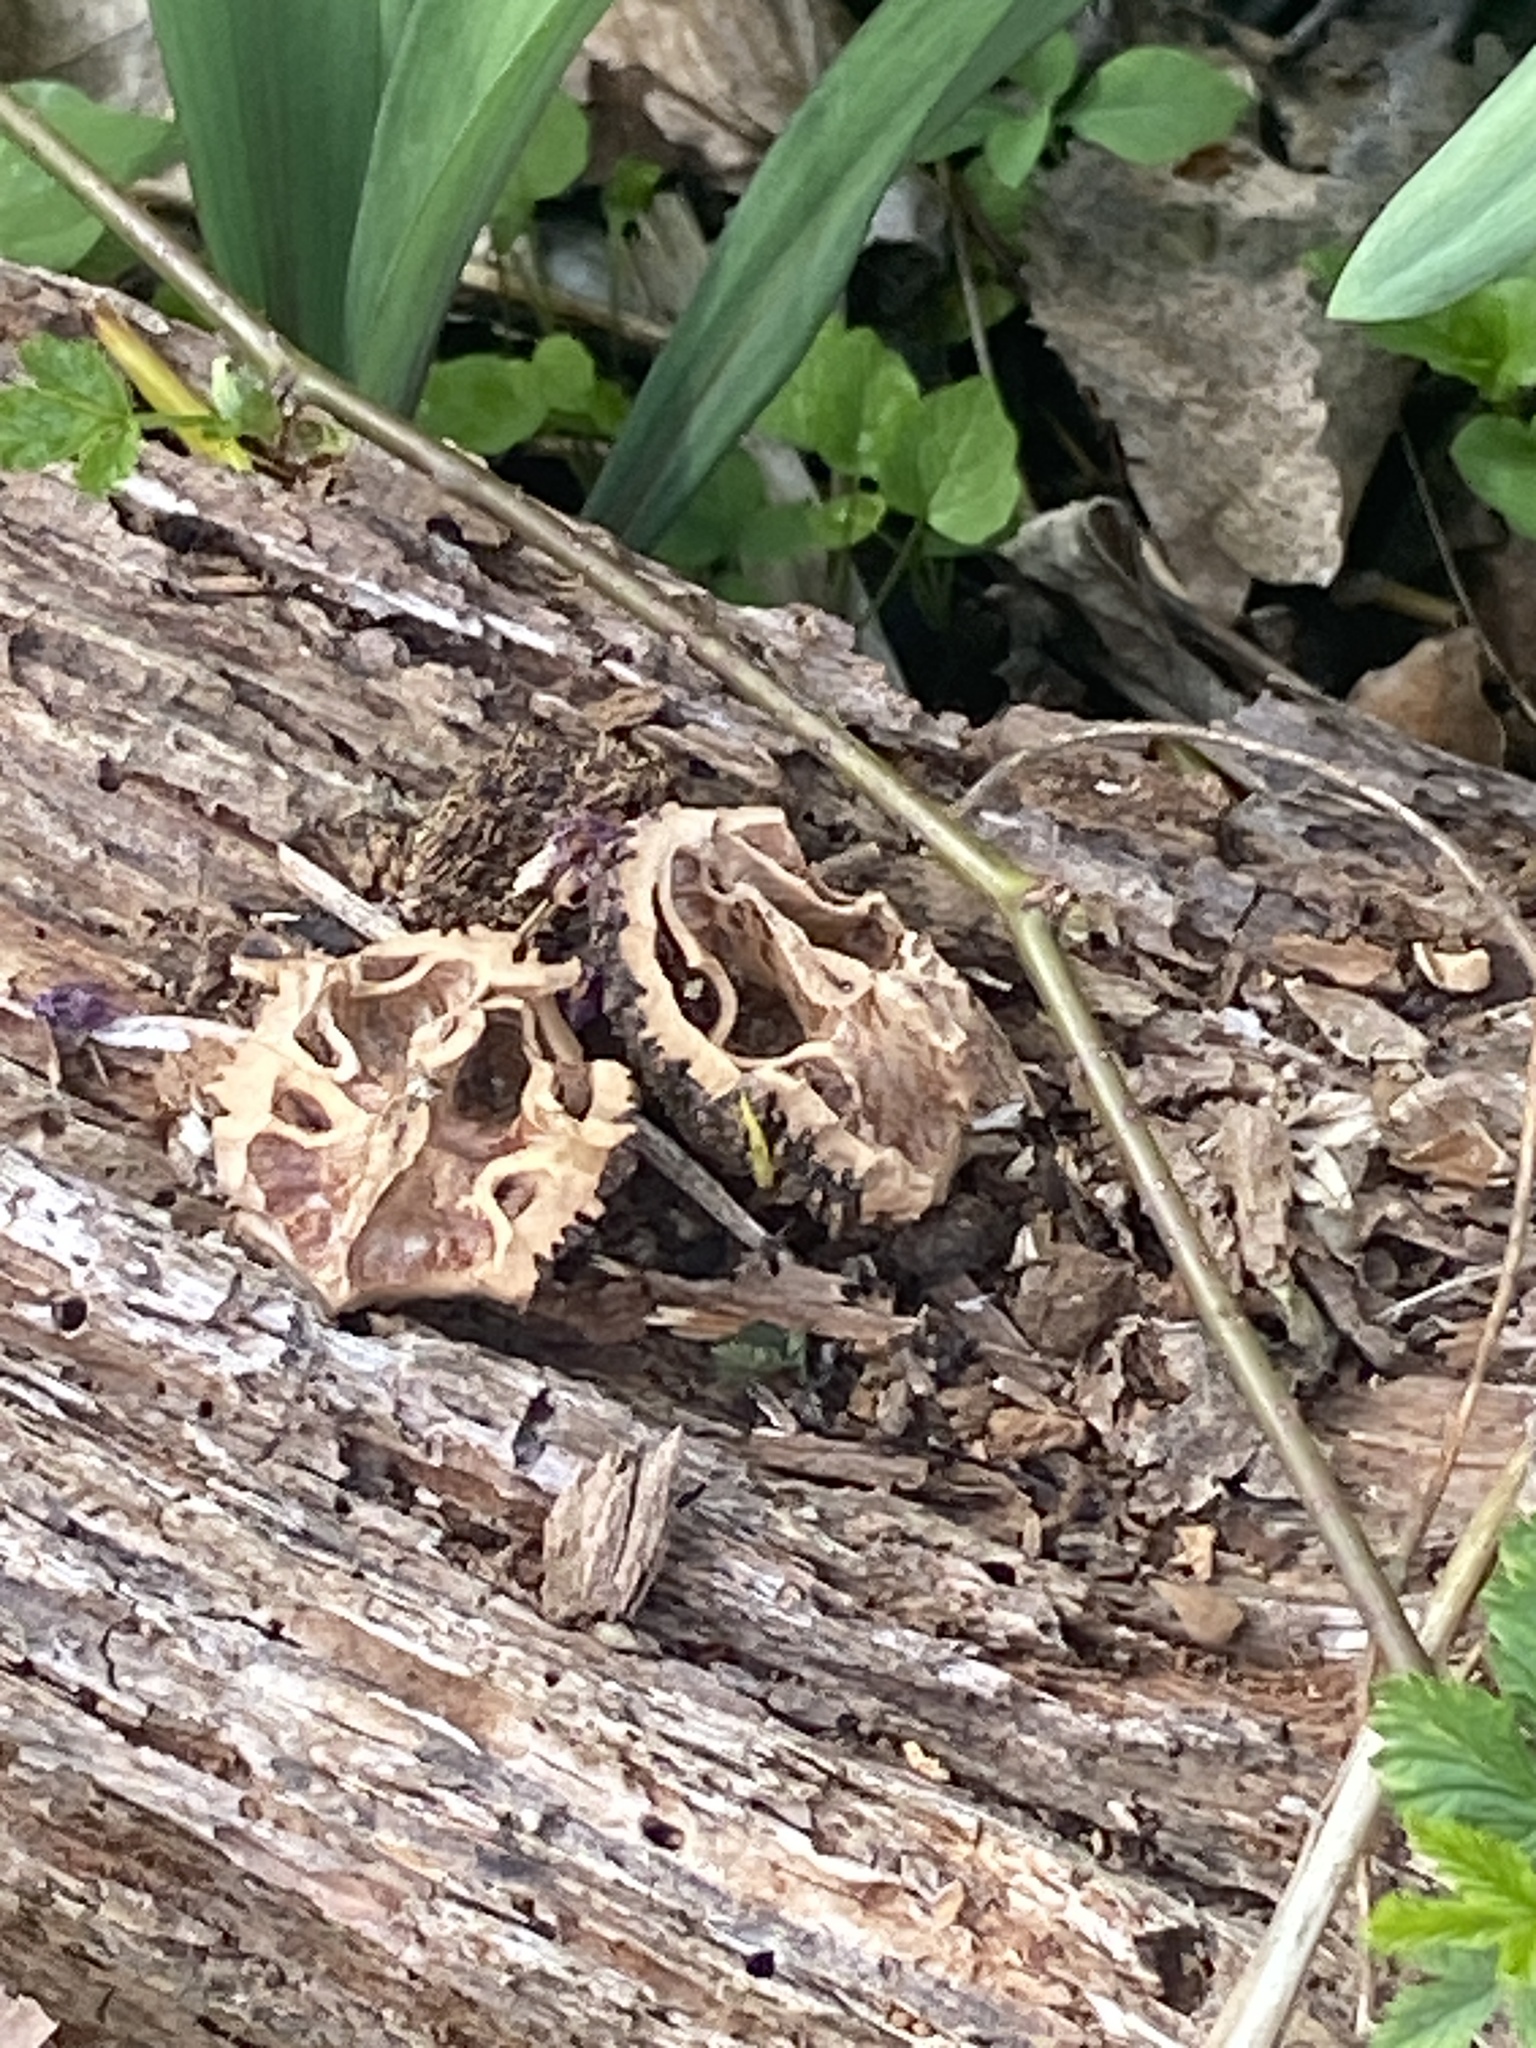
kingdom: Plantae
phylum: Tracheophyta
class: Magnoliopsida
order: Fagales
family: Juglandaceae
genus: Juglans
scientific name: Juglans nigra
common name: Black walnut
